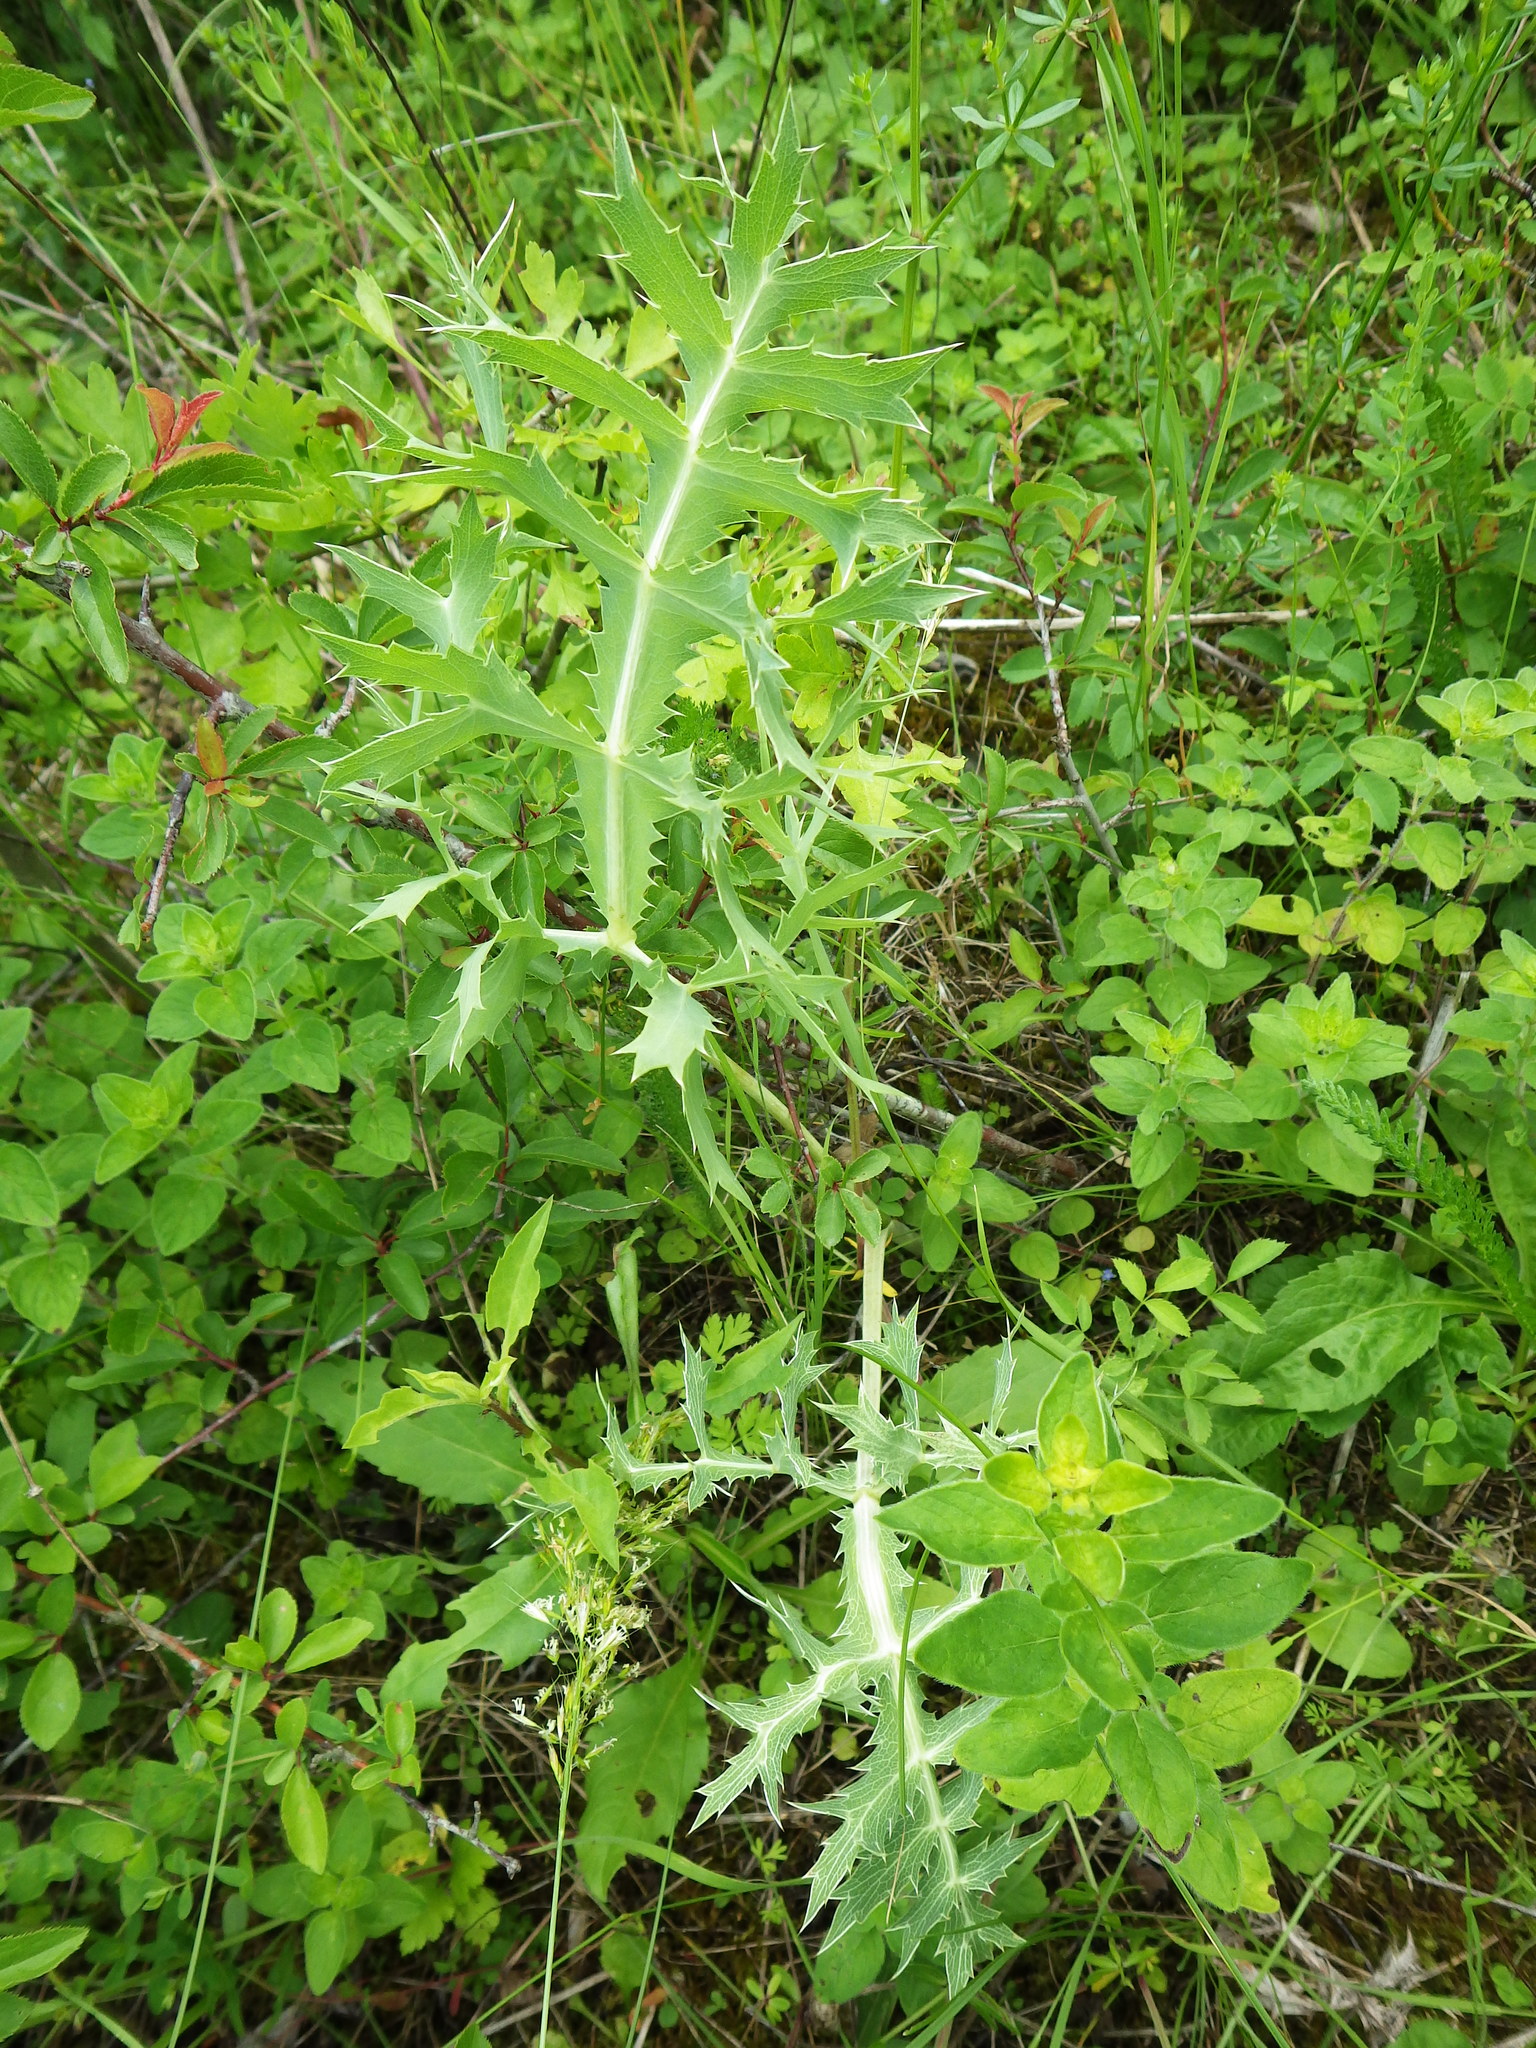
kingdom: Plantae
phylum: Tracheophyta
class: Magnoliopsida
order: Apiales
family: Apiaceae
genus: Eryngium
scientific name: Eryngium campestre
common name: Field eryngo
